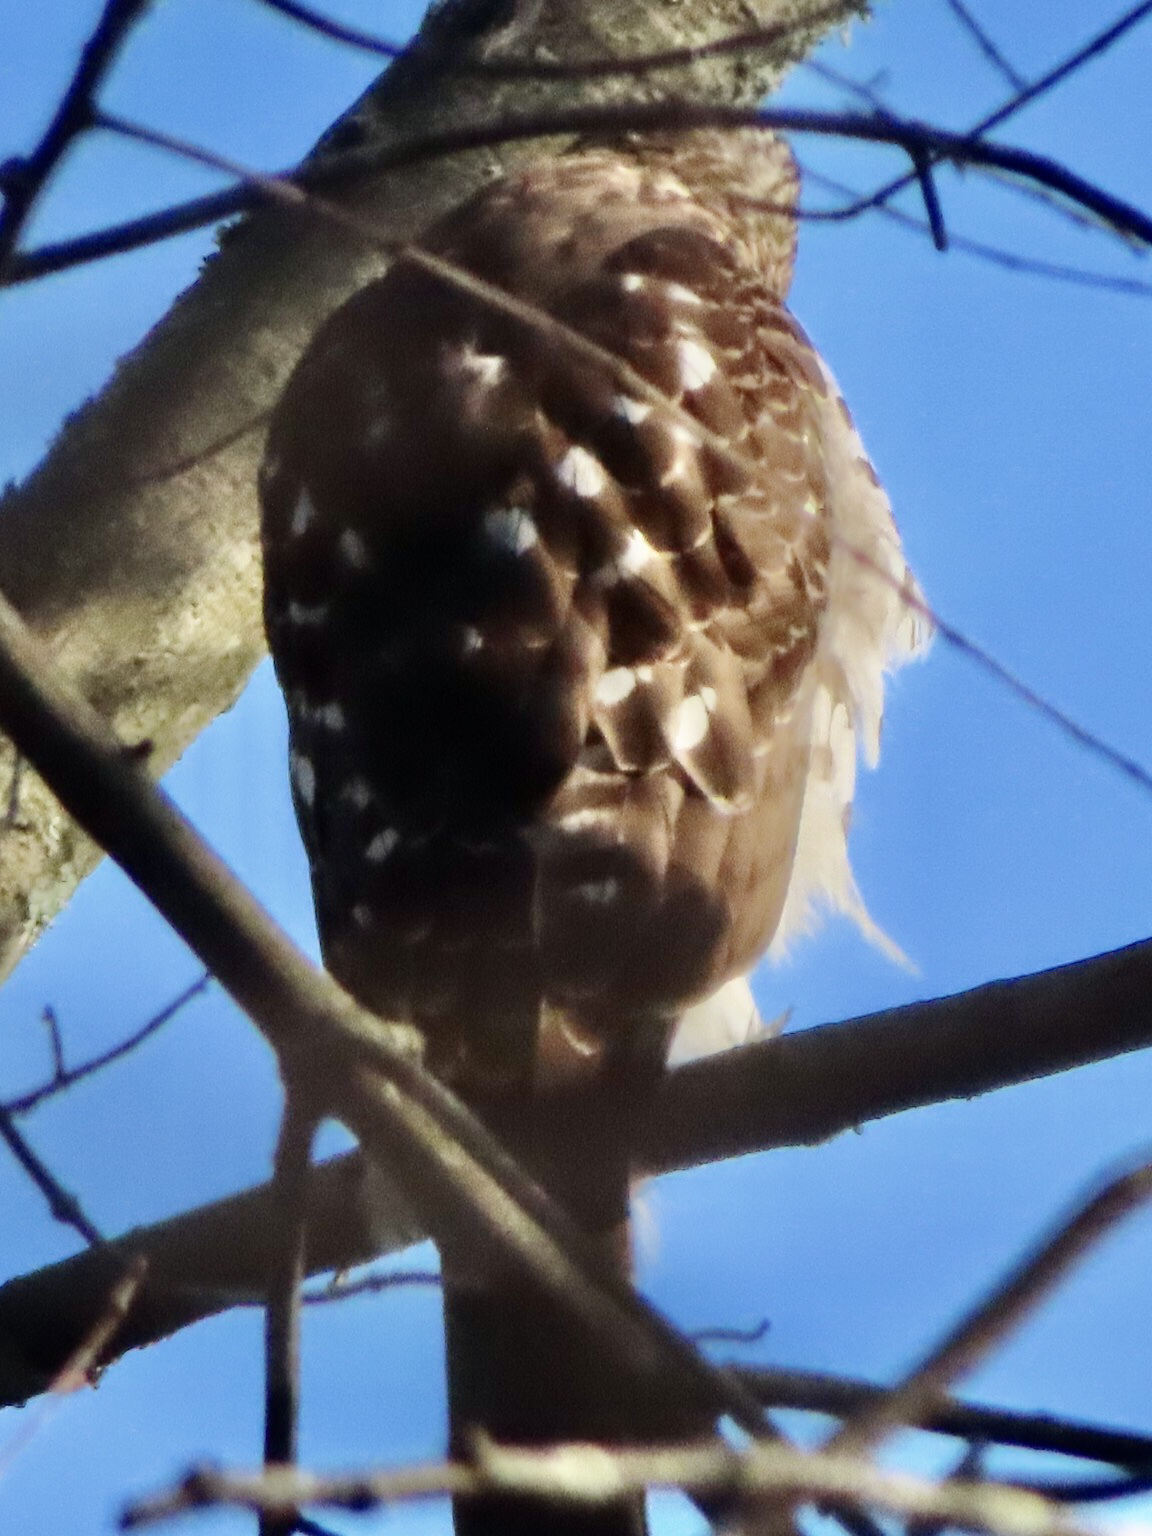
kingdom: Animalia
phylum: Chordata
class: Aves
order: Accipitriformes
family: Accipitridae
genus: Accipiter
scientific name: Accipiter cooperii
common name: Cooper's hawk
